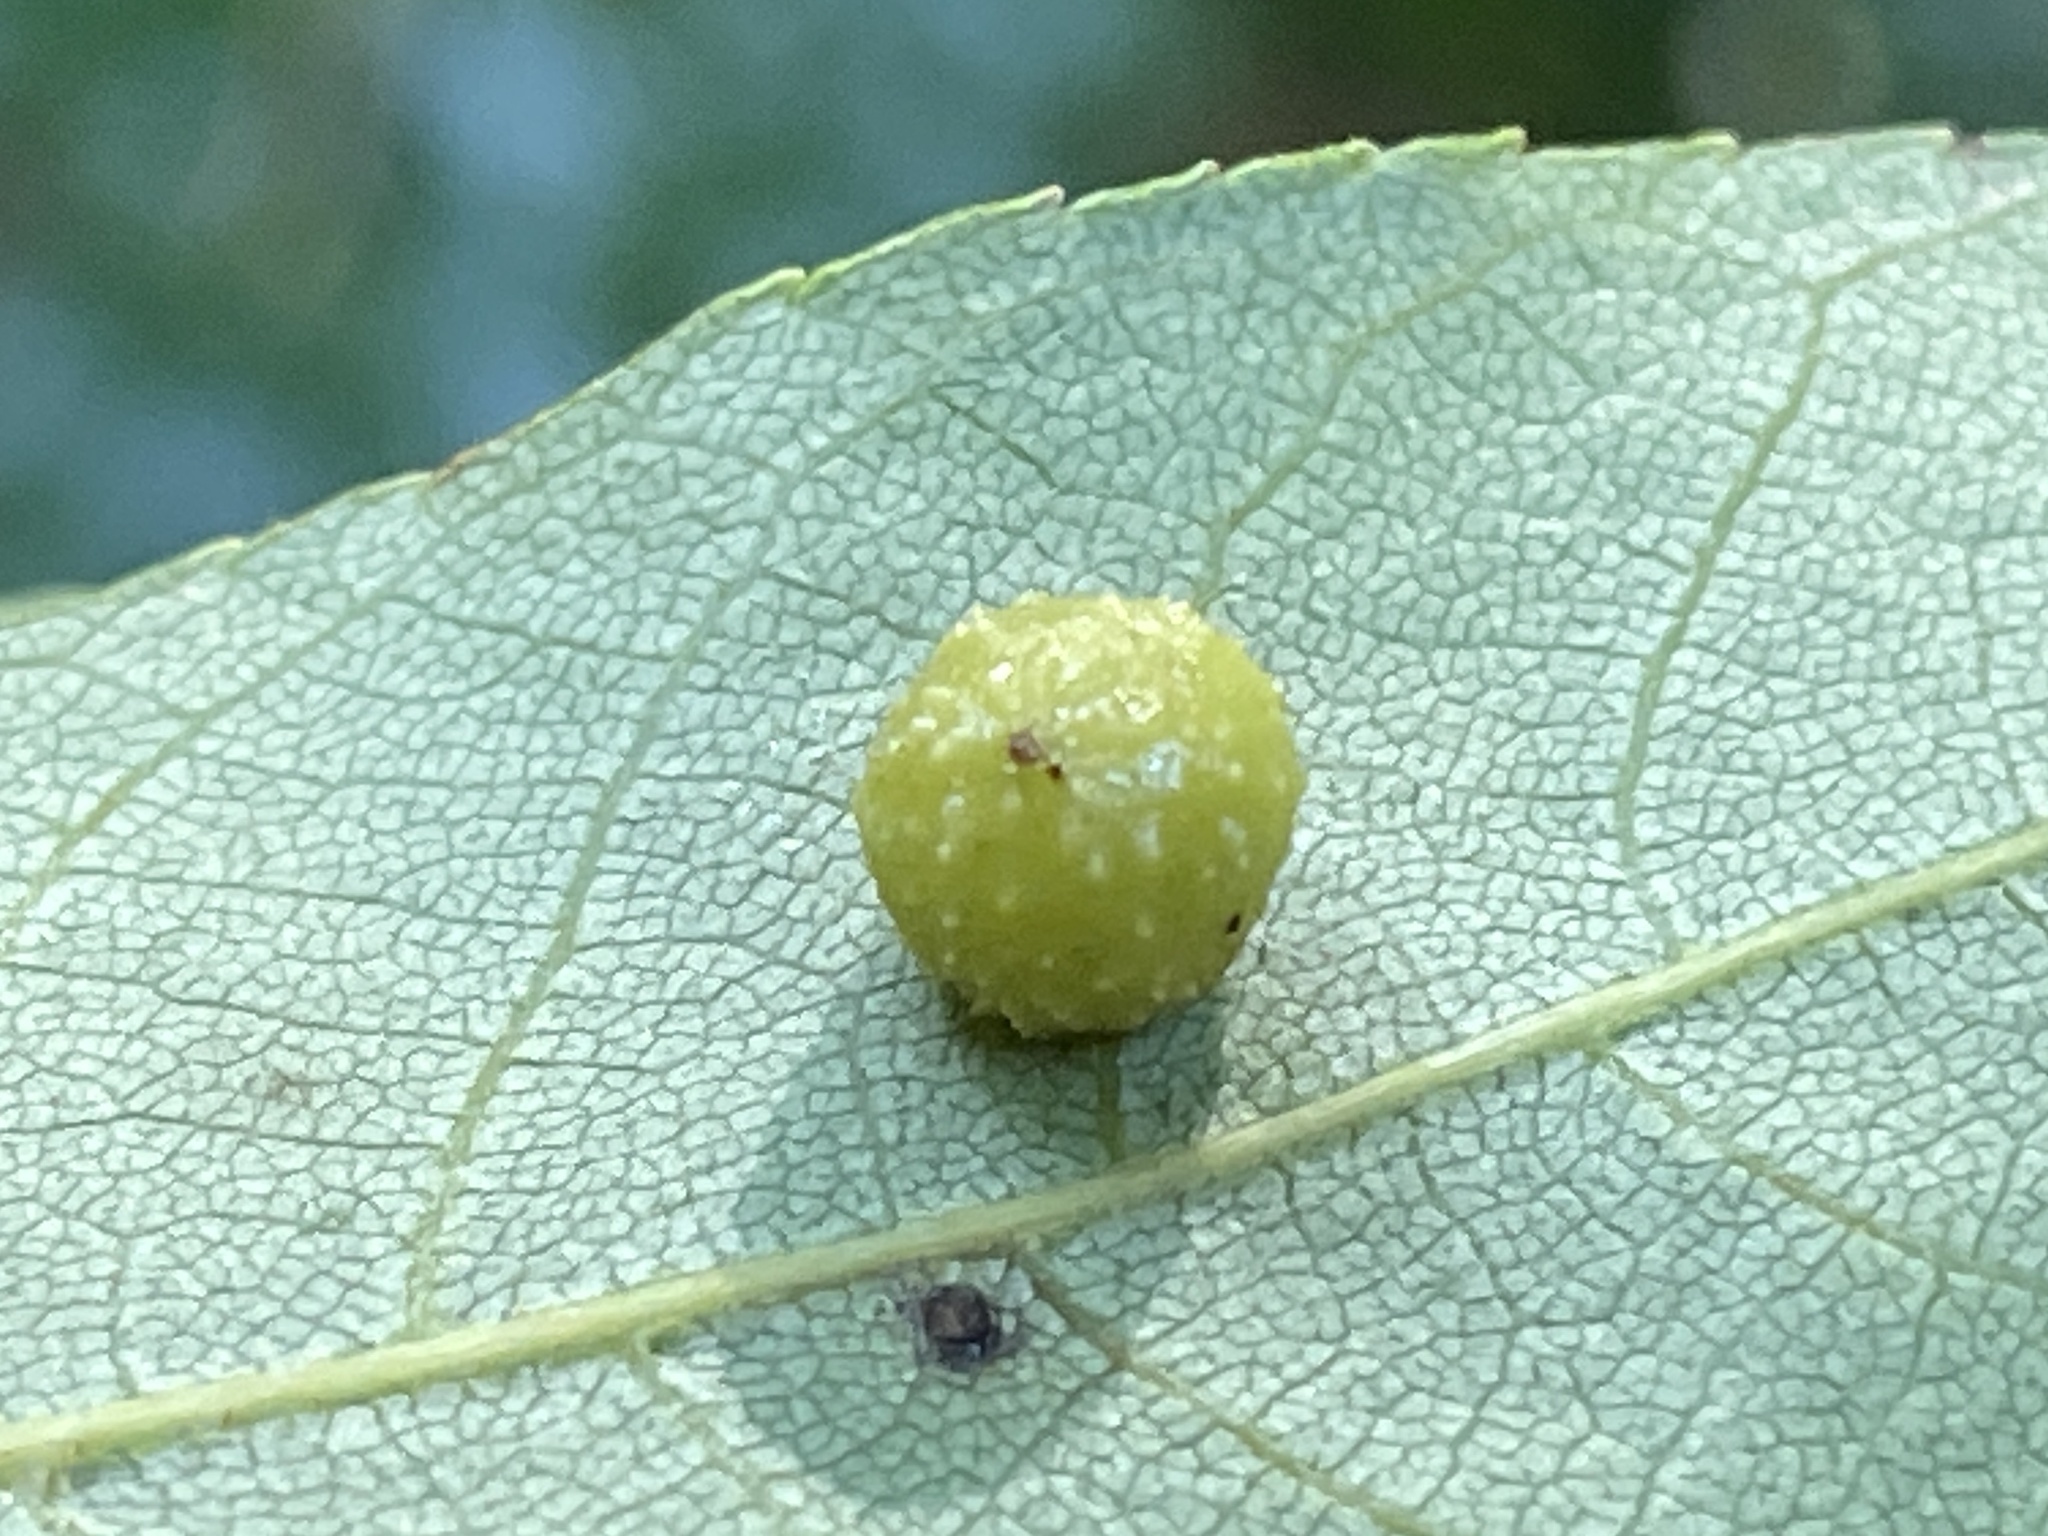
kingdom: Animalia
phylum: Arthropoda
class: Insecta
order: Diptera
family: Cecidomyiidae
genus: Caryomyia
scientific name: Caryomyia tuberculata
